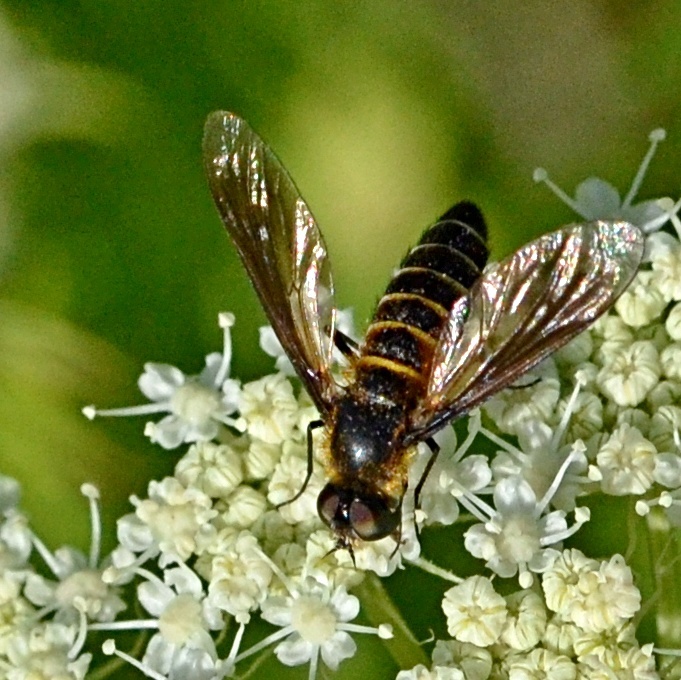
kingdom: Animalia
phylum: Arthropoda
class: Insecta
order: Diptera
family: Bombyliidae
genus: Lomatia
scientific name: Lomatia lateralis
